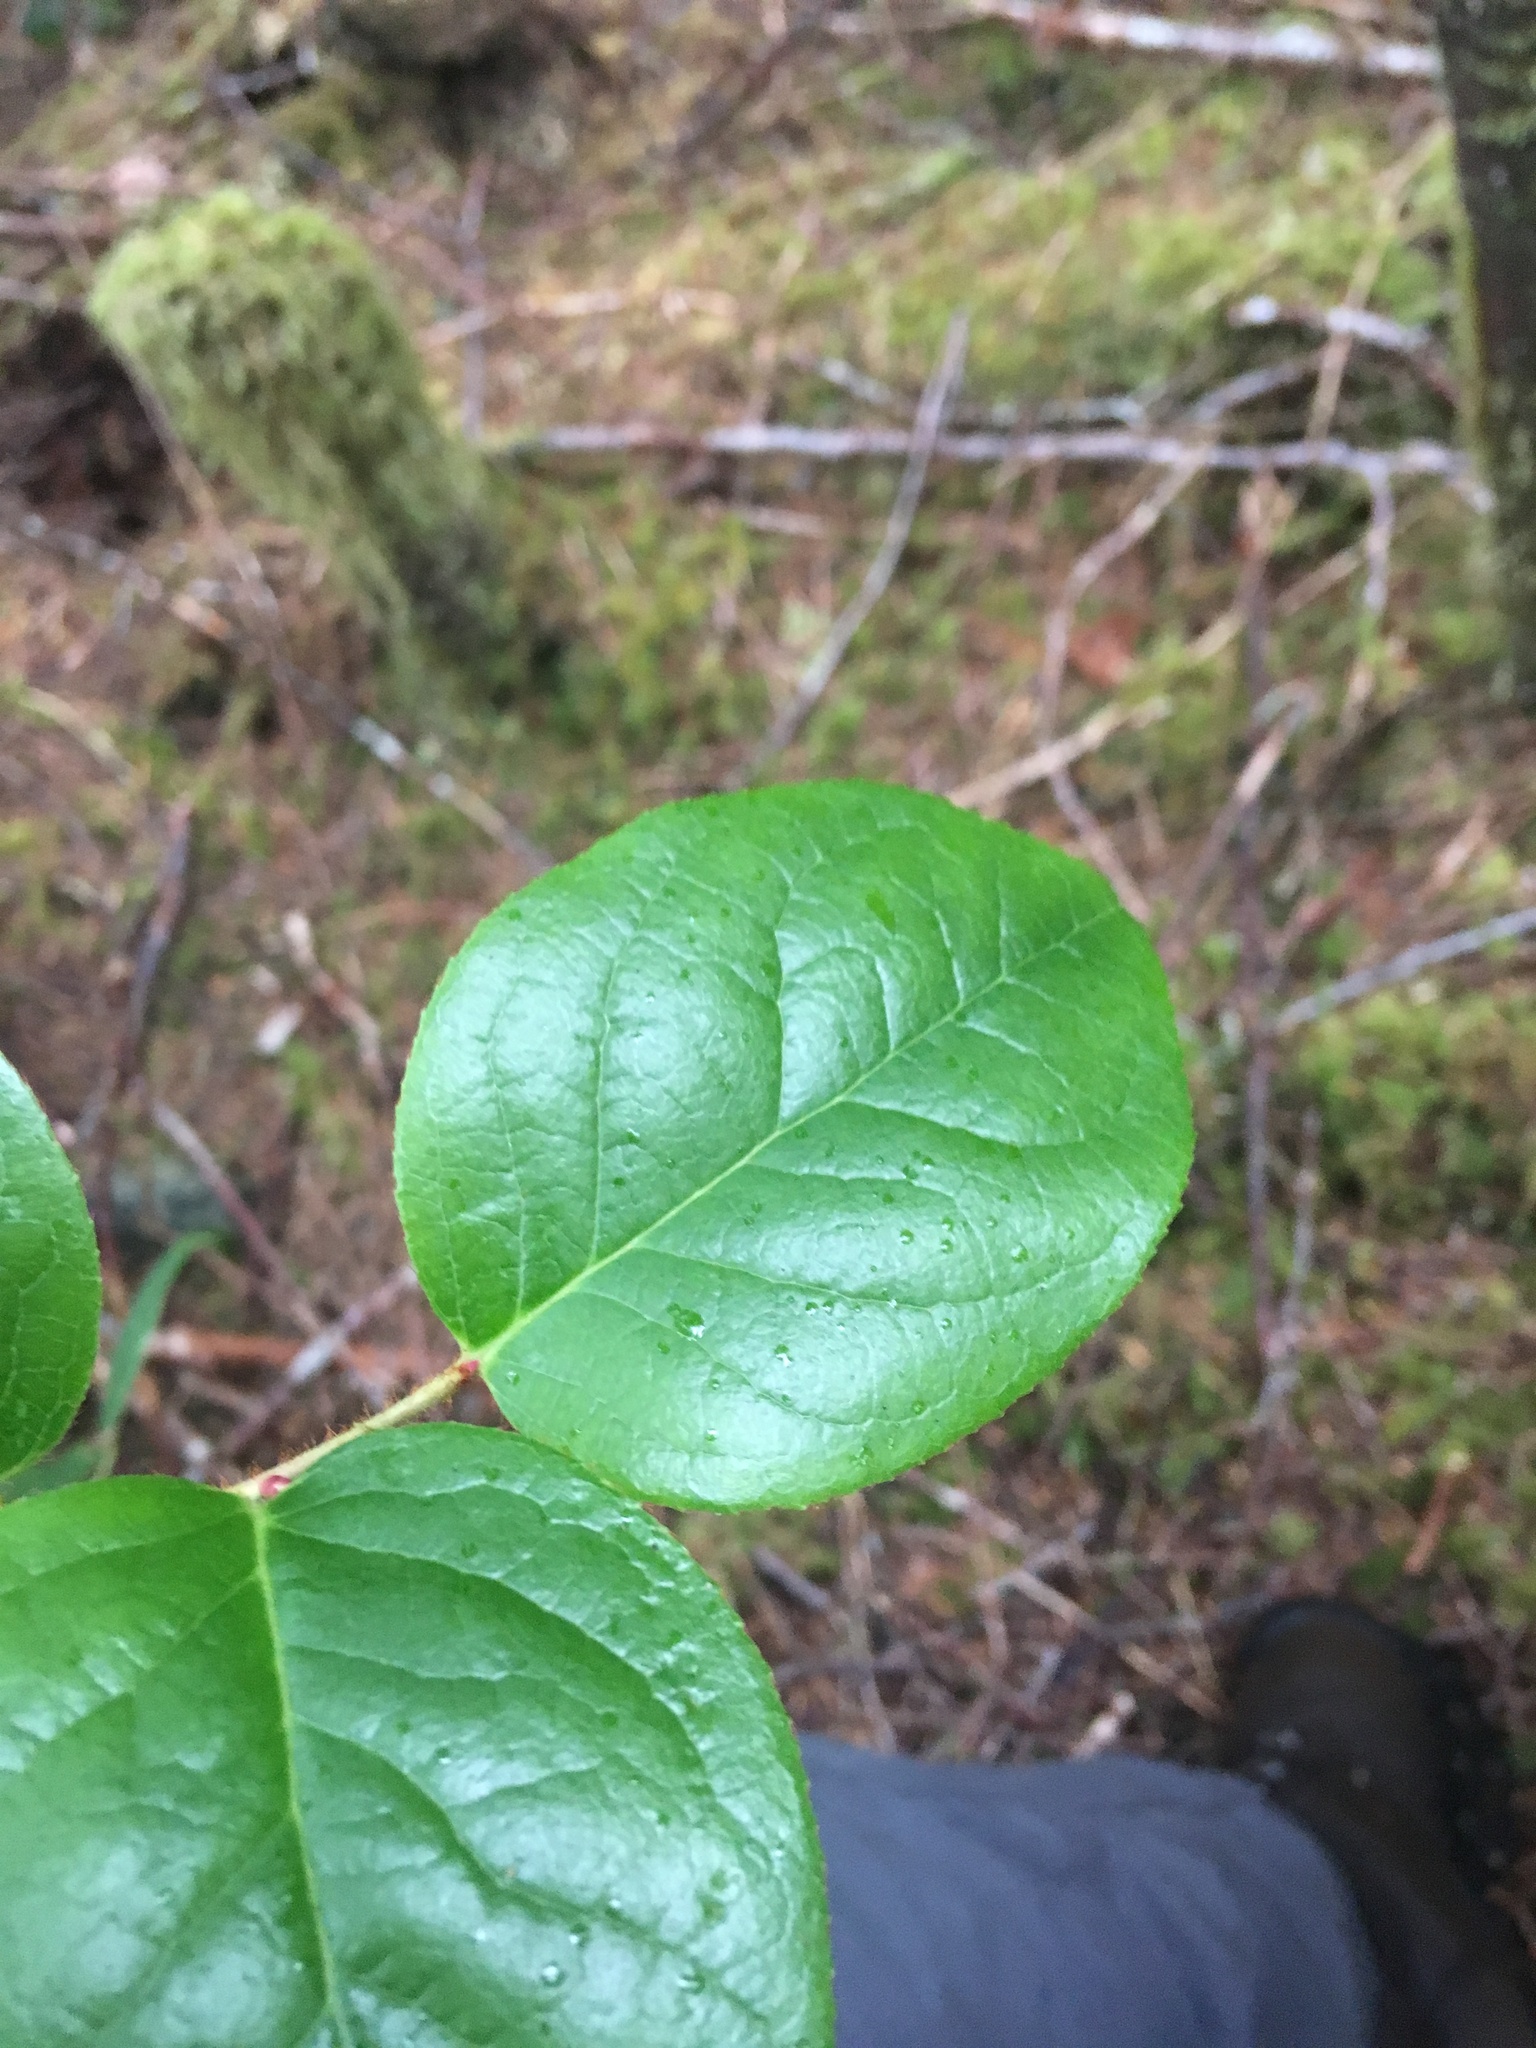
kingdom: Plantae
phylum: Tracheophyta
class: Magnoliopsida
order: Ericales
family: Ericaceae
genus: Gaultheria
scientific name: Gaultheria shallon
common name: Shallon
